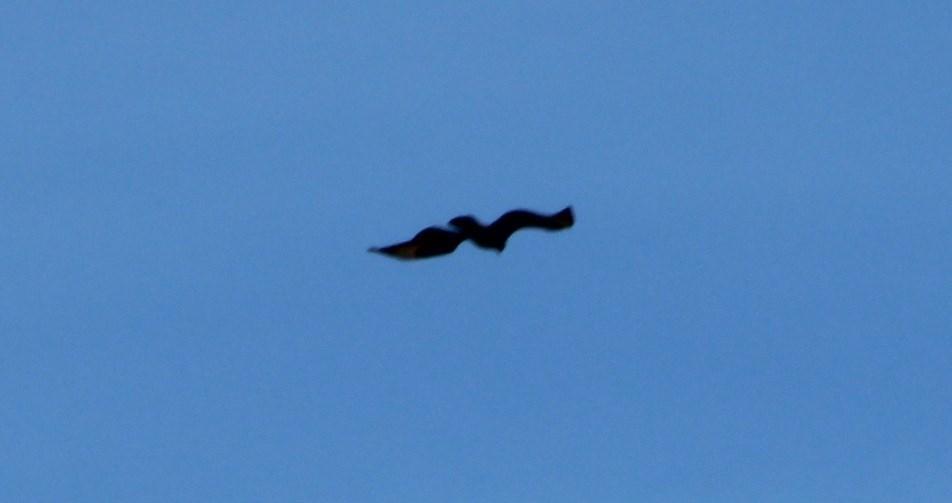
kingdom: Animalia
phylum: Chordata
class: Aves
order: Accipitriformes
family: Accipitridae
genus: Aquila
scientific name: Aquila verreauxii
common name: Verreaux's eagle
